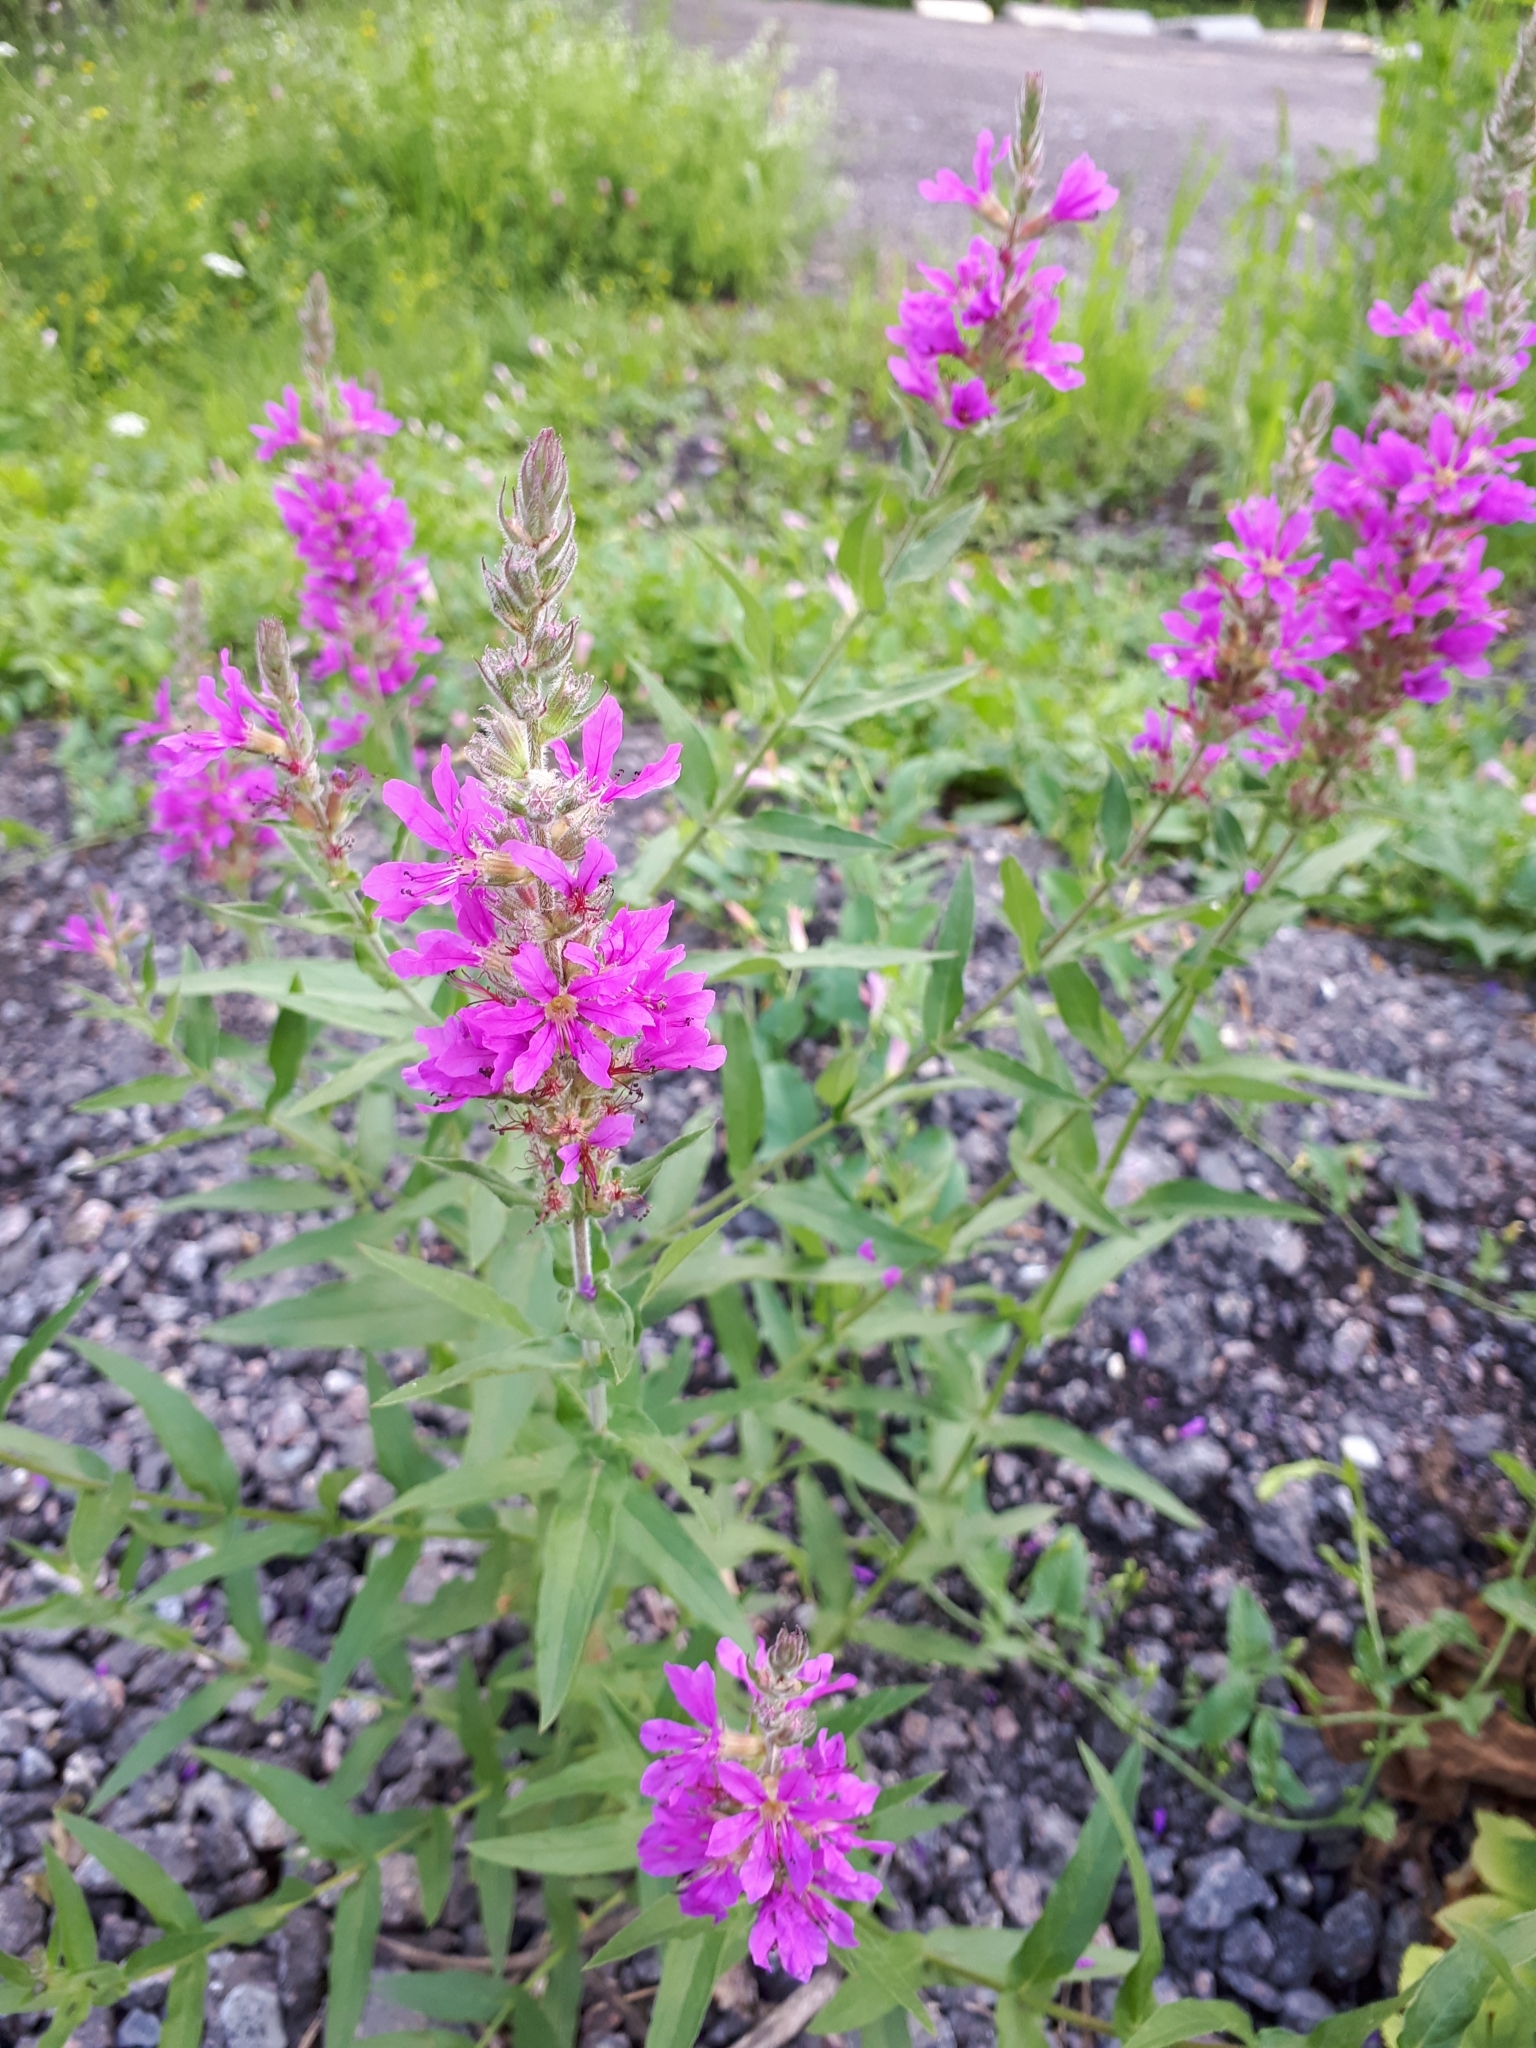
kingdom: Plantae
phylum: Tracheophyta
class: Magnoliopsida
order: Myrtales
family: Lythraceae
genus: Lythrum
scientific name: Lythrum salicaria
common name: Purple loosestrife
